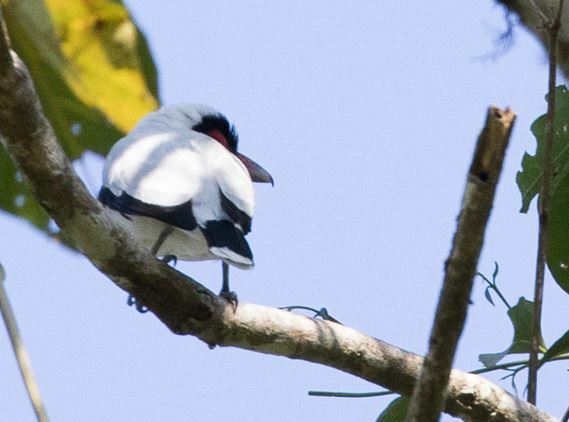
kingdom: Animalia
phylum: Chordata
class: Aves
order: Passeriformes
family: Cotingidae
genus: Tityra
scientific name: Tityra semifasciata
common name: Masked tityra
